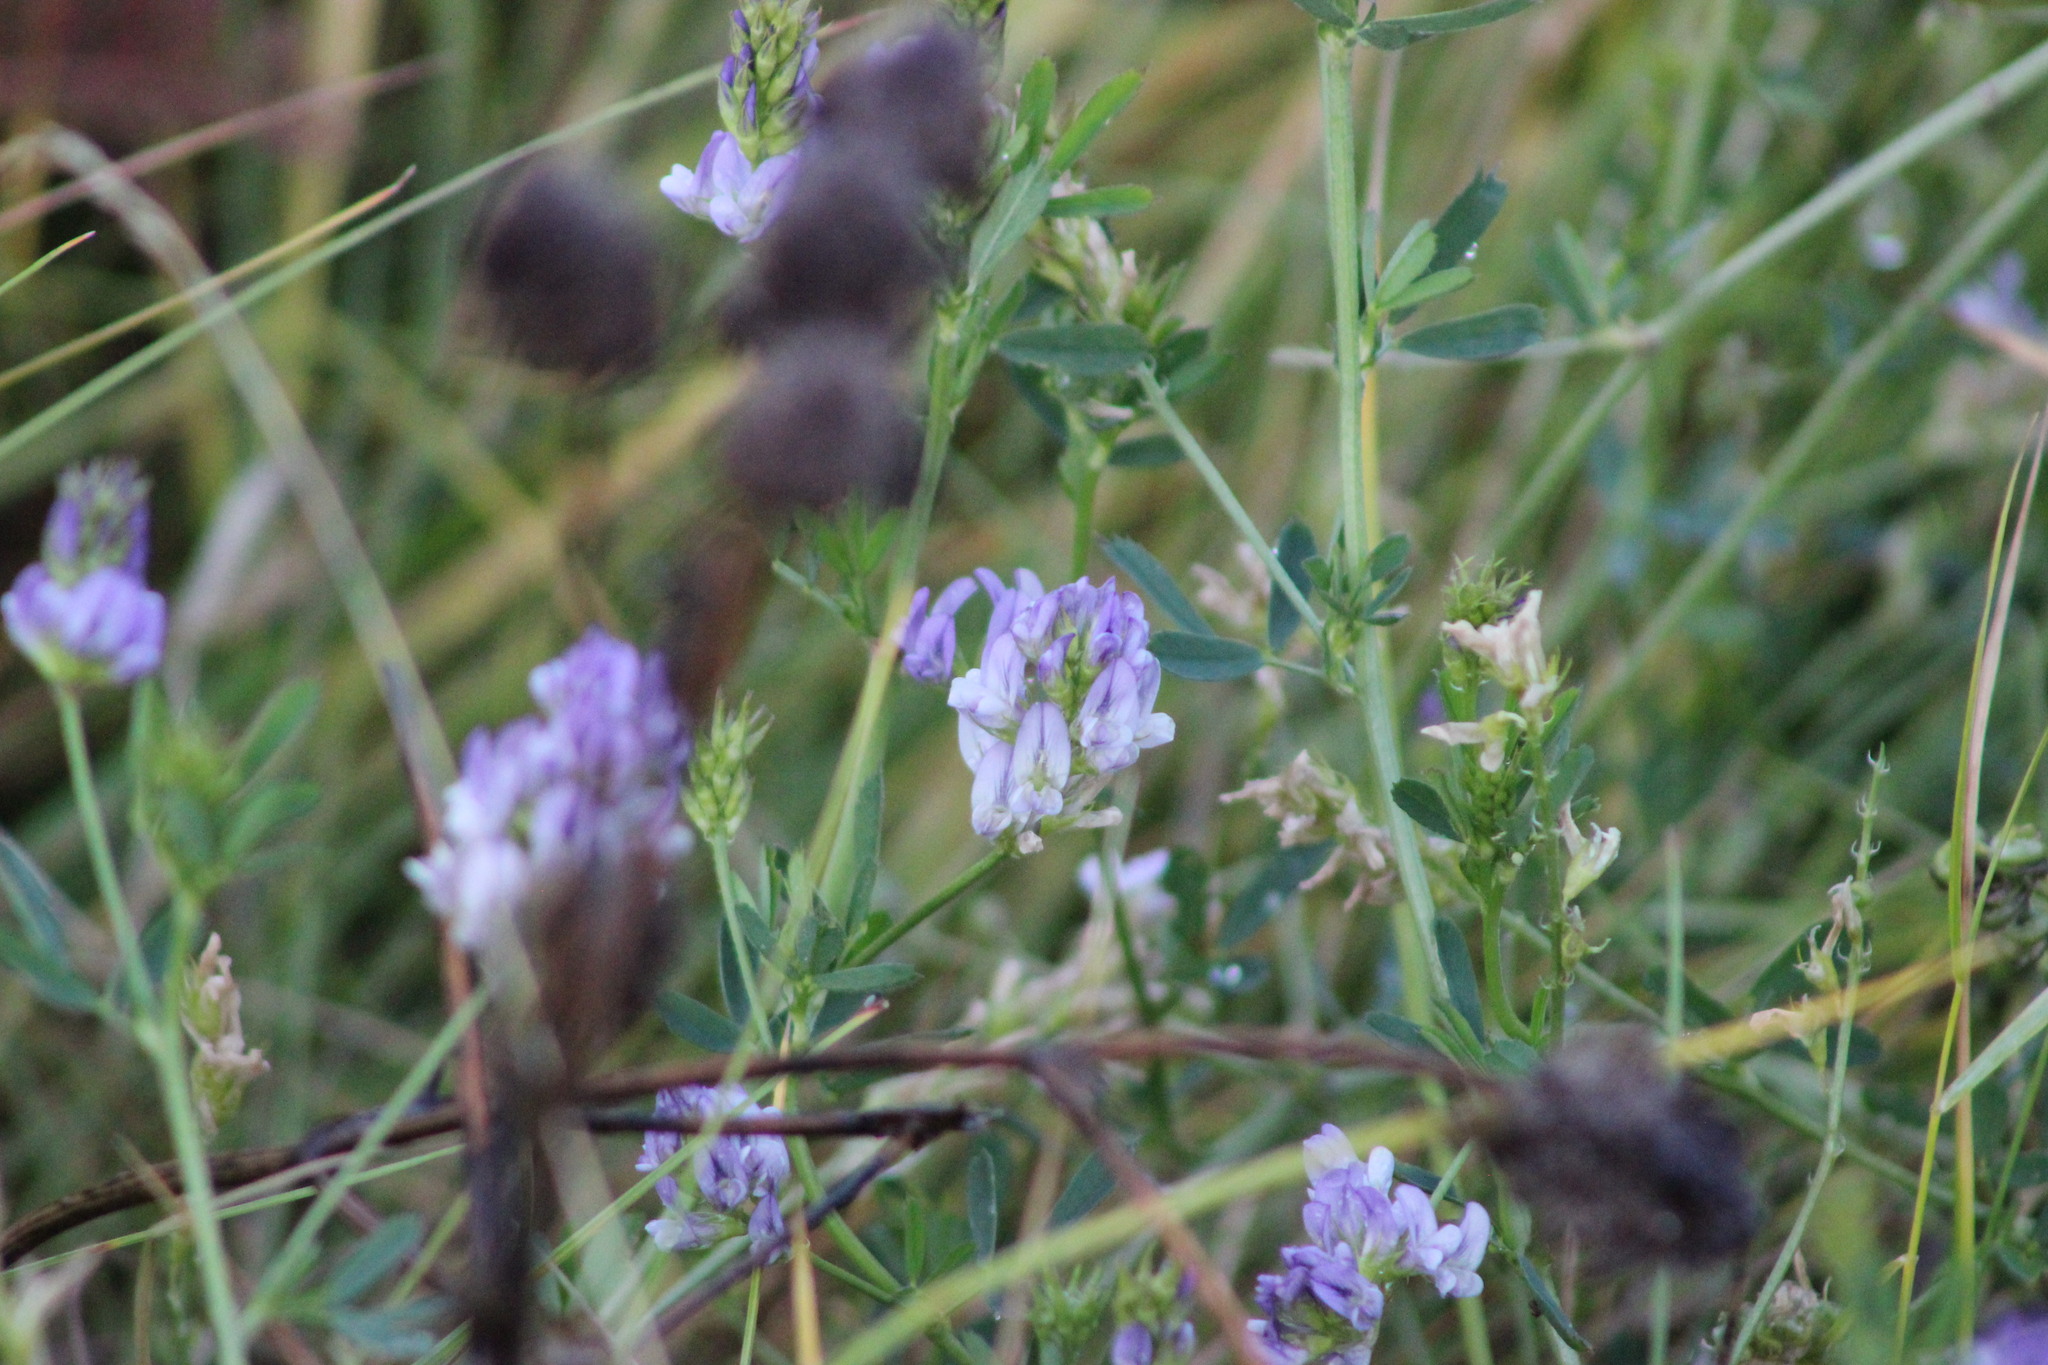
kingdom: Plantae
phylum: Tracheophyta
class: Magnoliopsida
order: Fabales
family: Fabaceae
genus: Medicago
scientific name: Medicago varia
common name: Sand lucerne
